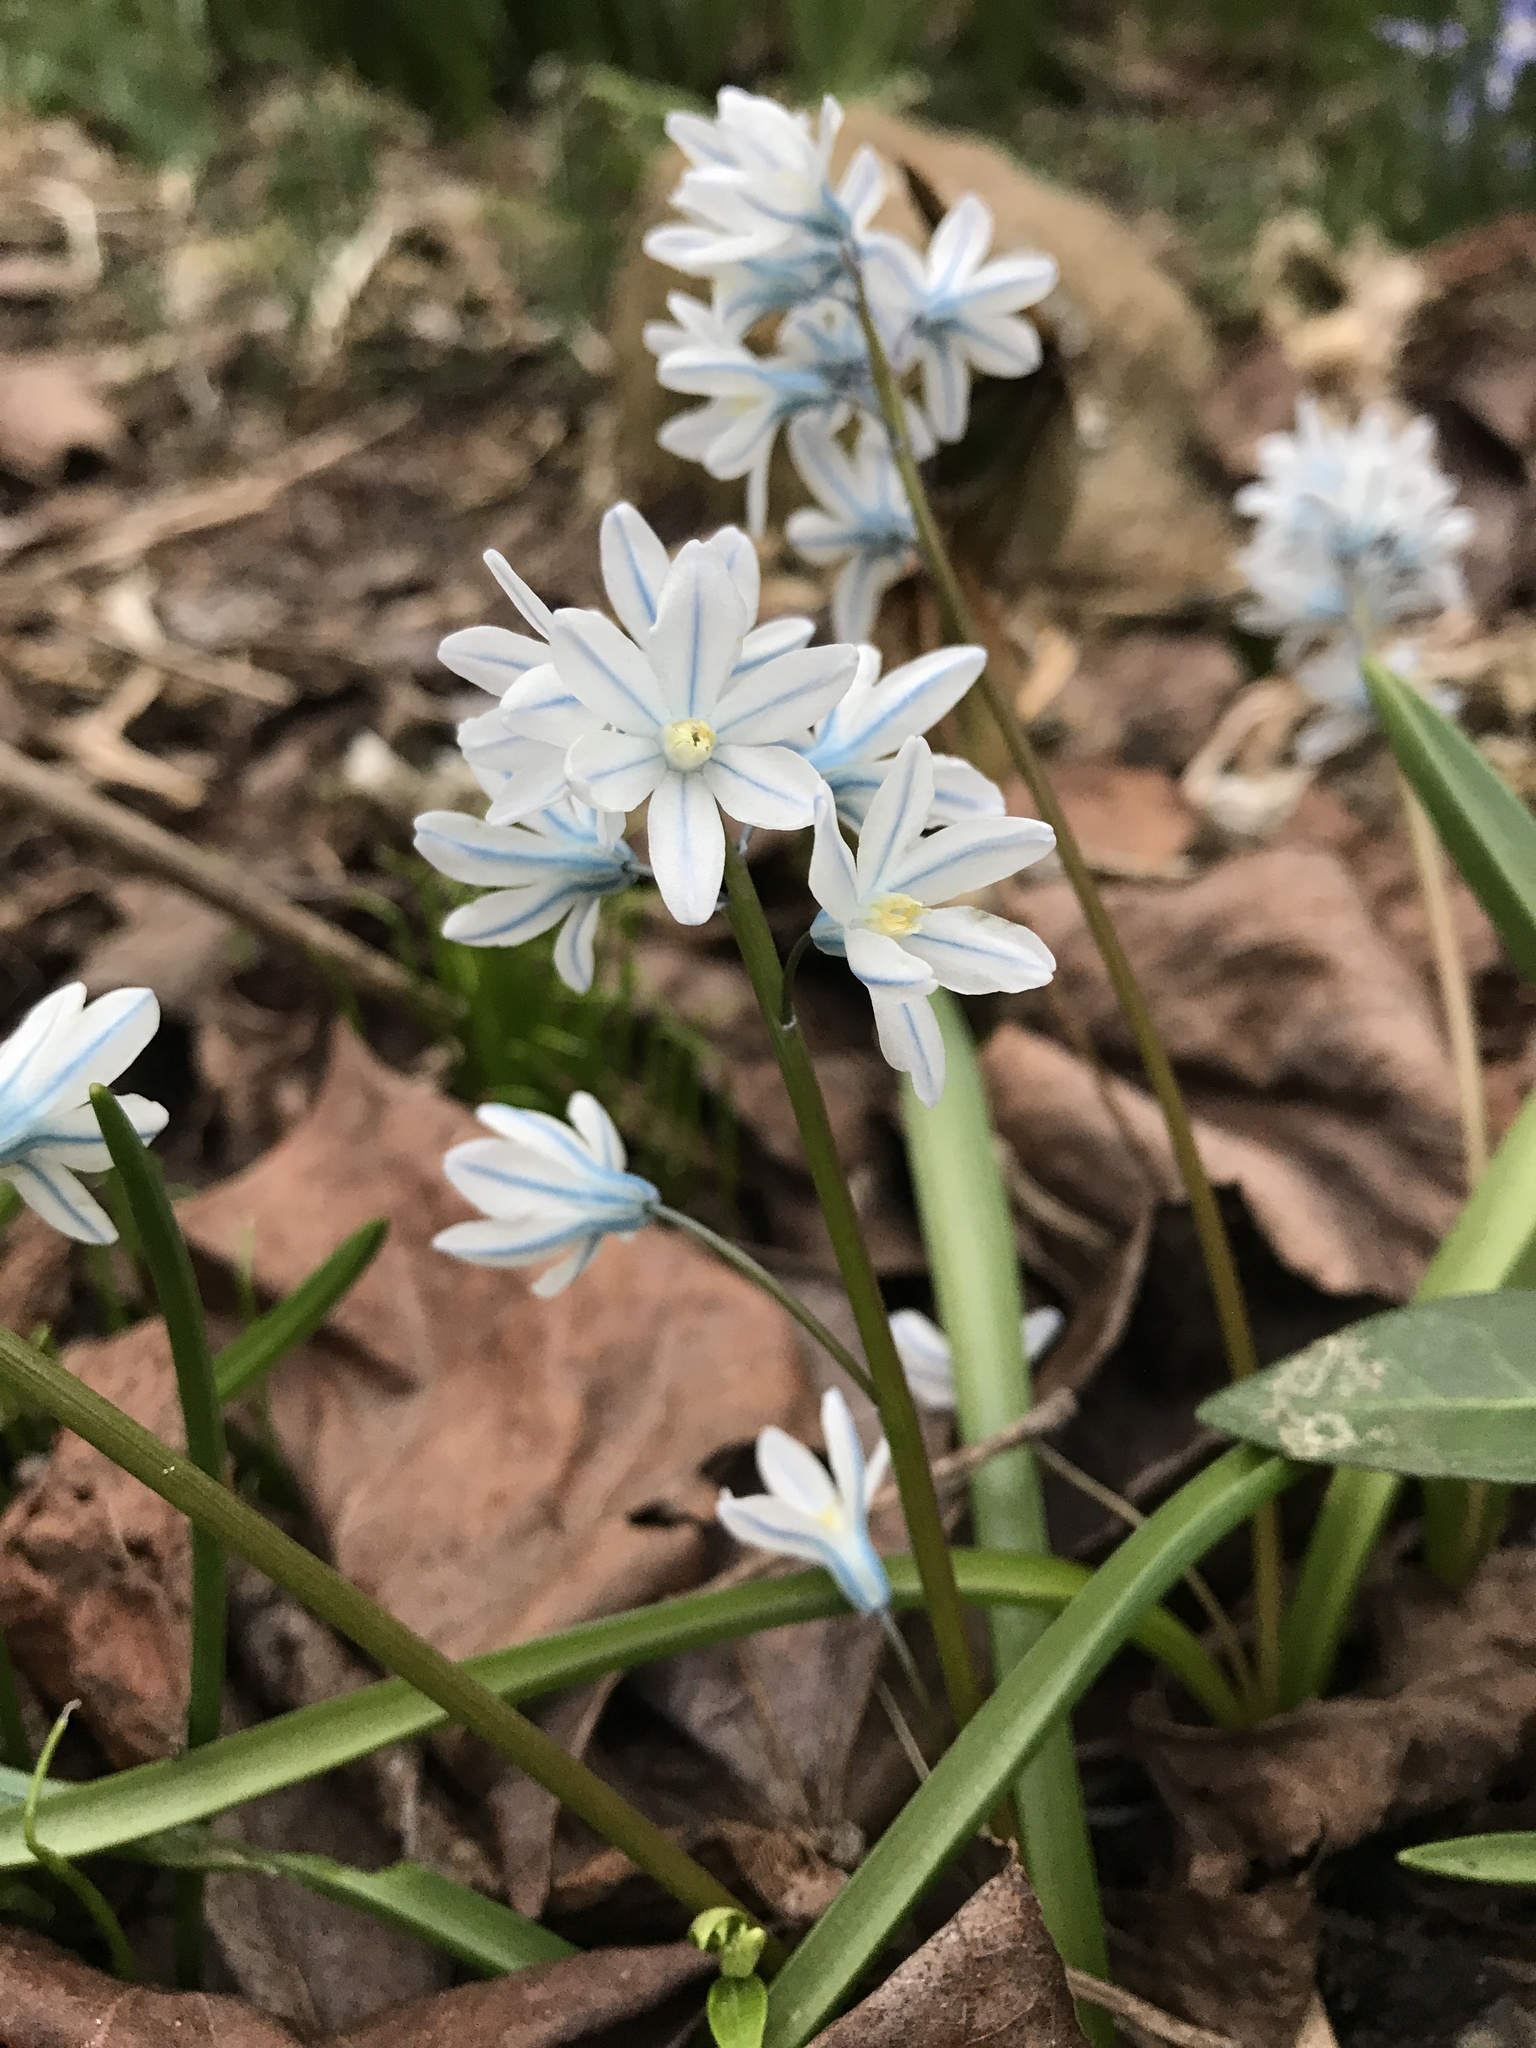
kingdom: Plantae
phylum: Tracheophyta
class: Liliopsida
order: Asparagales
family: Asparagaceae
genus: Puschkinia
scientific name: Puschkinia scilloides
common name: Striped squill
